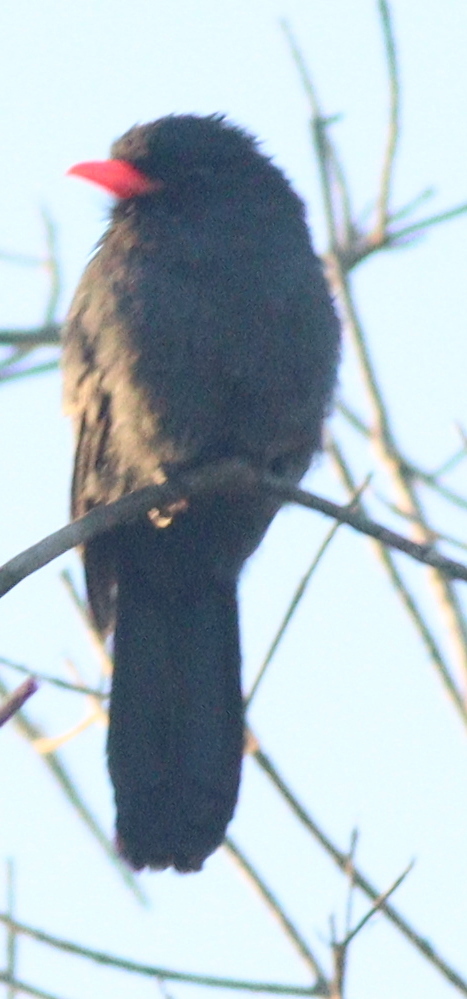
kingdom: Animalia
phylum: Chordata
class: Aves
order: Piciformes
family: Bucconidae
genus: Monasa
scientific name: Monasa nigrifrons
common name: Black-fronted nunbird
